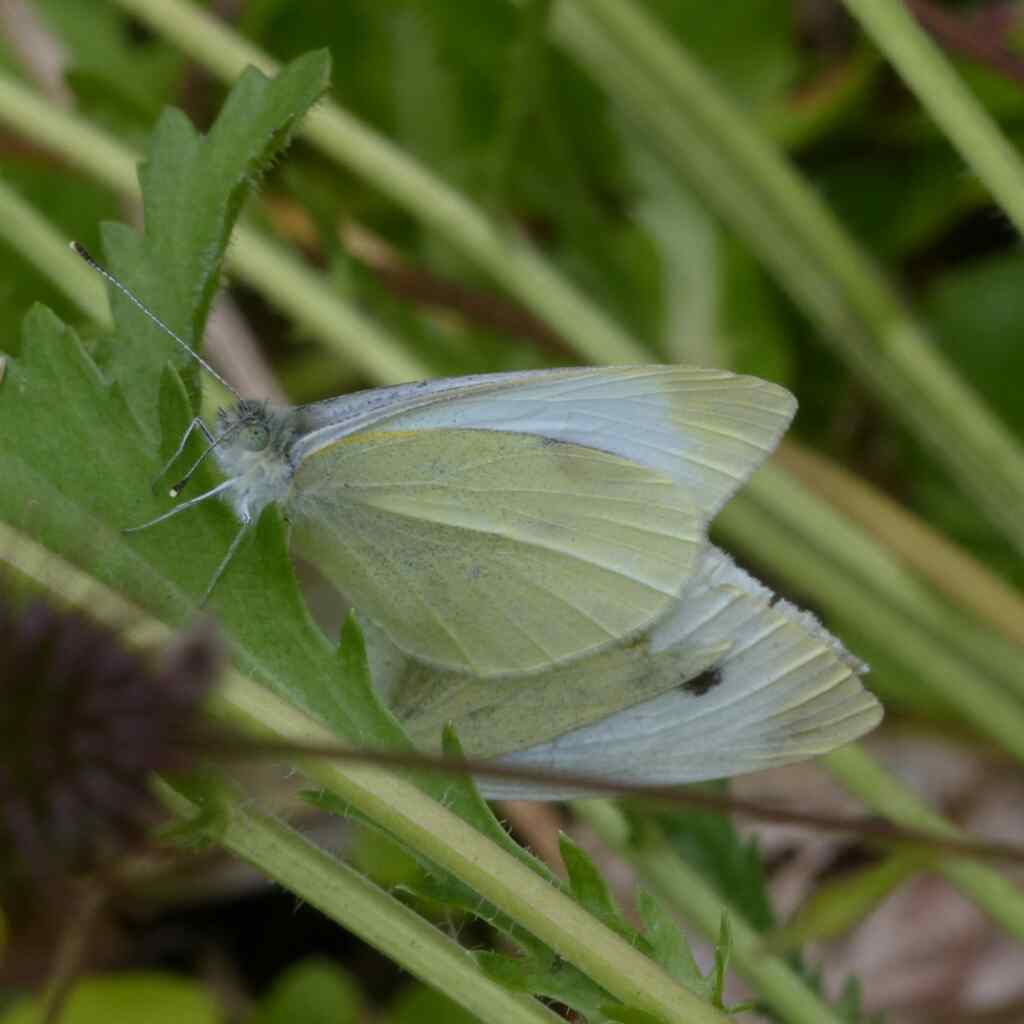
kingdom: Animalia
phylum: Arthropoda
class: Insecta
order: Lepidoptera
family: Pieridae
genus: Pieris
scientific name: Pieris rapae
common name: Small white
